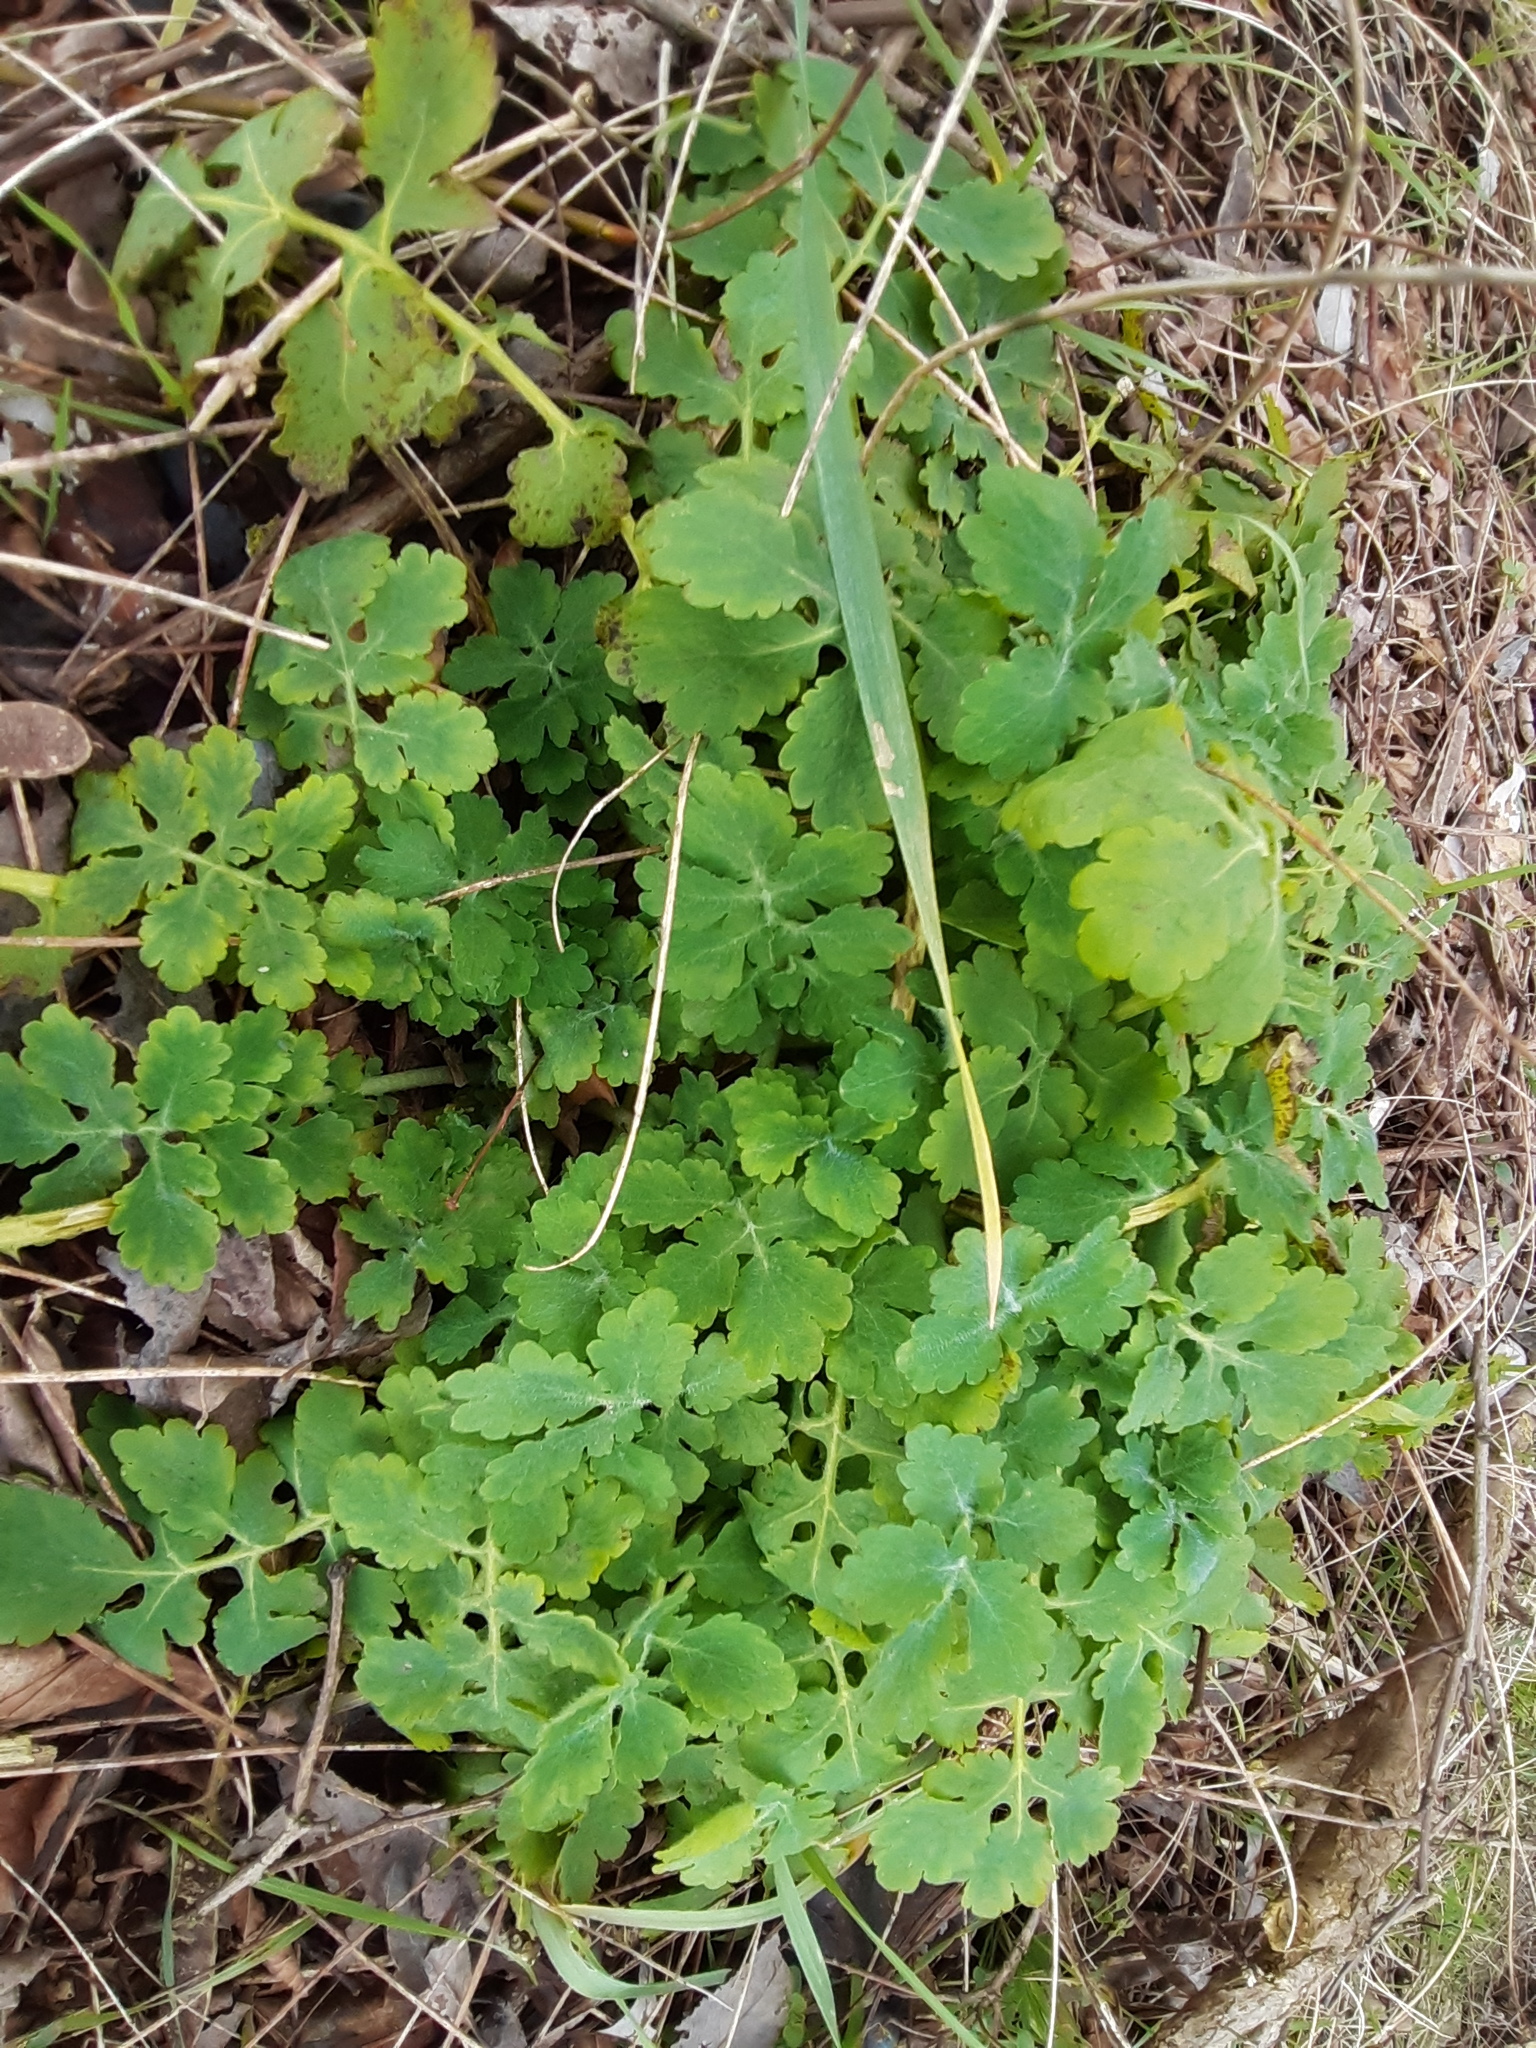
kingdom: Plantae
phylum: Tracheophyta
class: Magnoliopsida
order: Ranunculales
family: Papaveraceae
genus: Chelidonium
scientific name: Chelidonium majus
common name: Greater celandine
